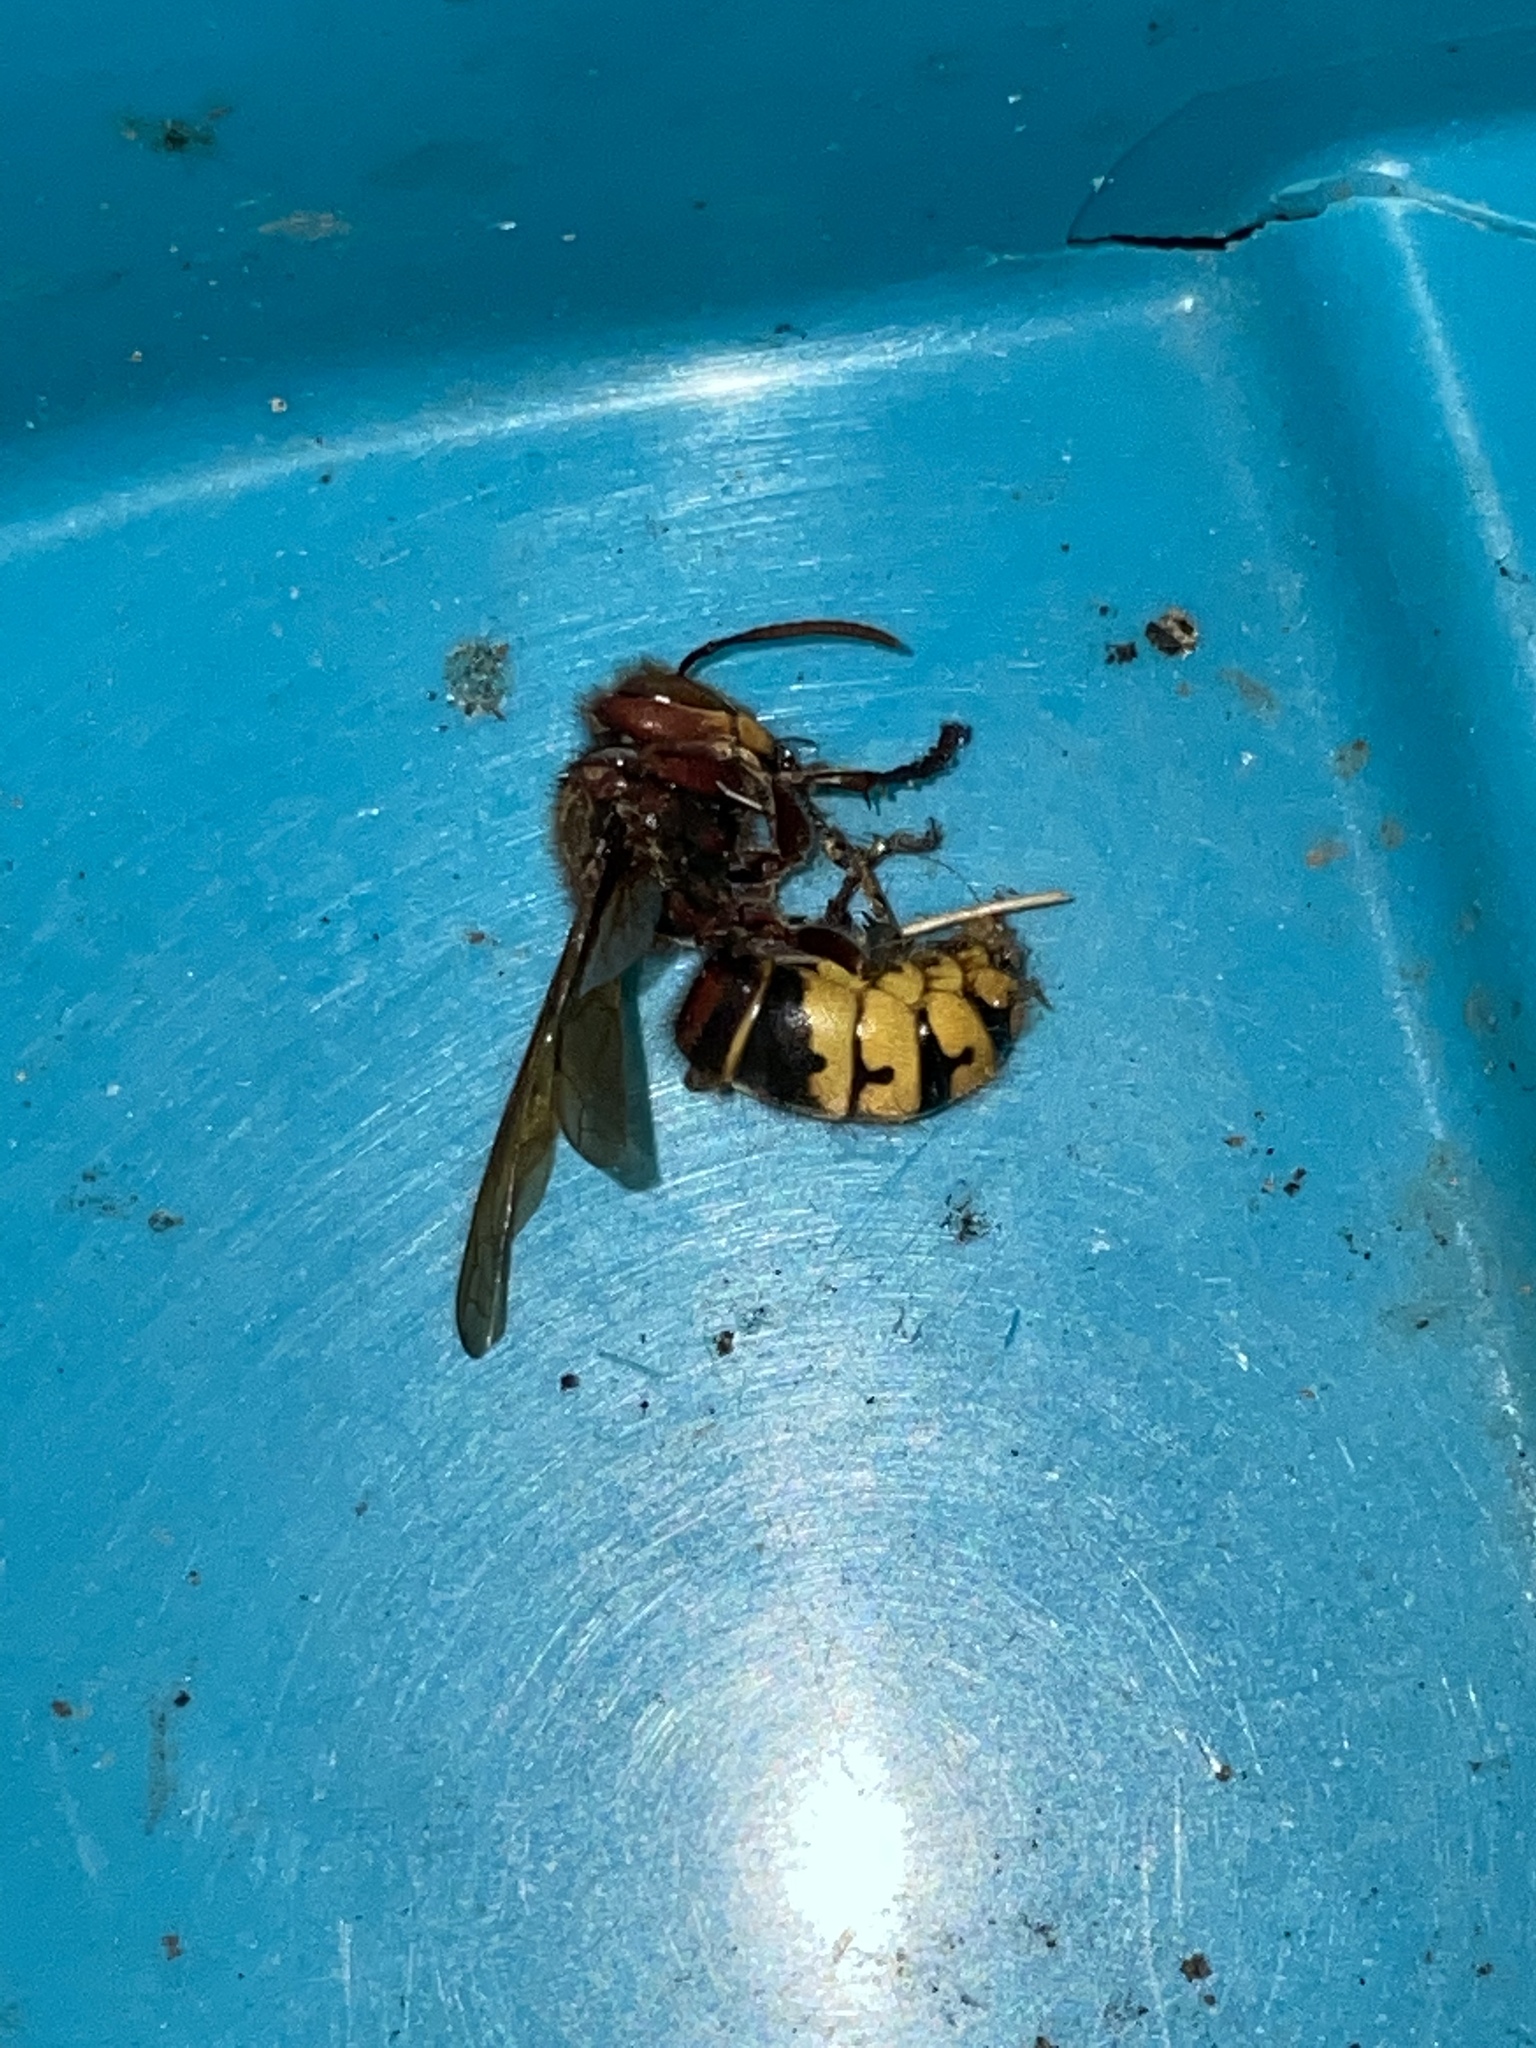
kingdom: Animalia
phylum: Arthropoda
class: Insecta
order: Hymenoptera
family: Vespidae
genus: Vespa
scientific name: Vespa crabro
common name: Hornet
